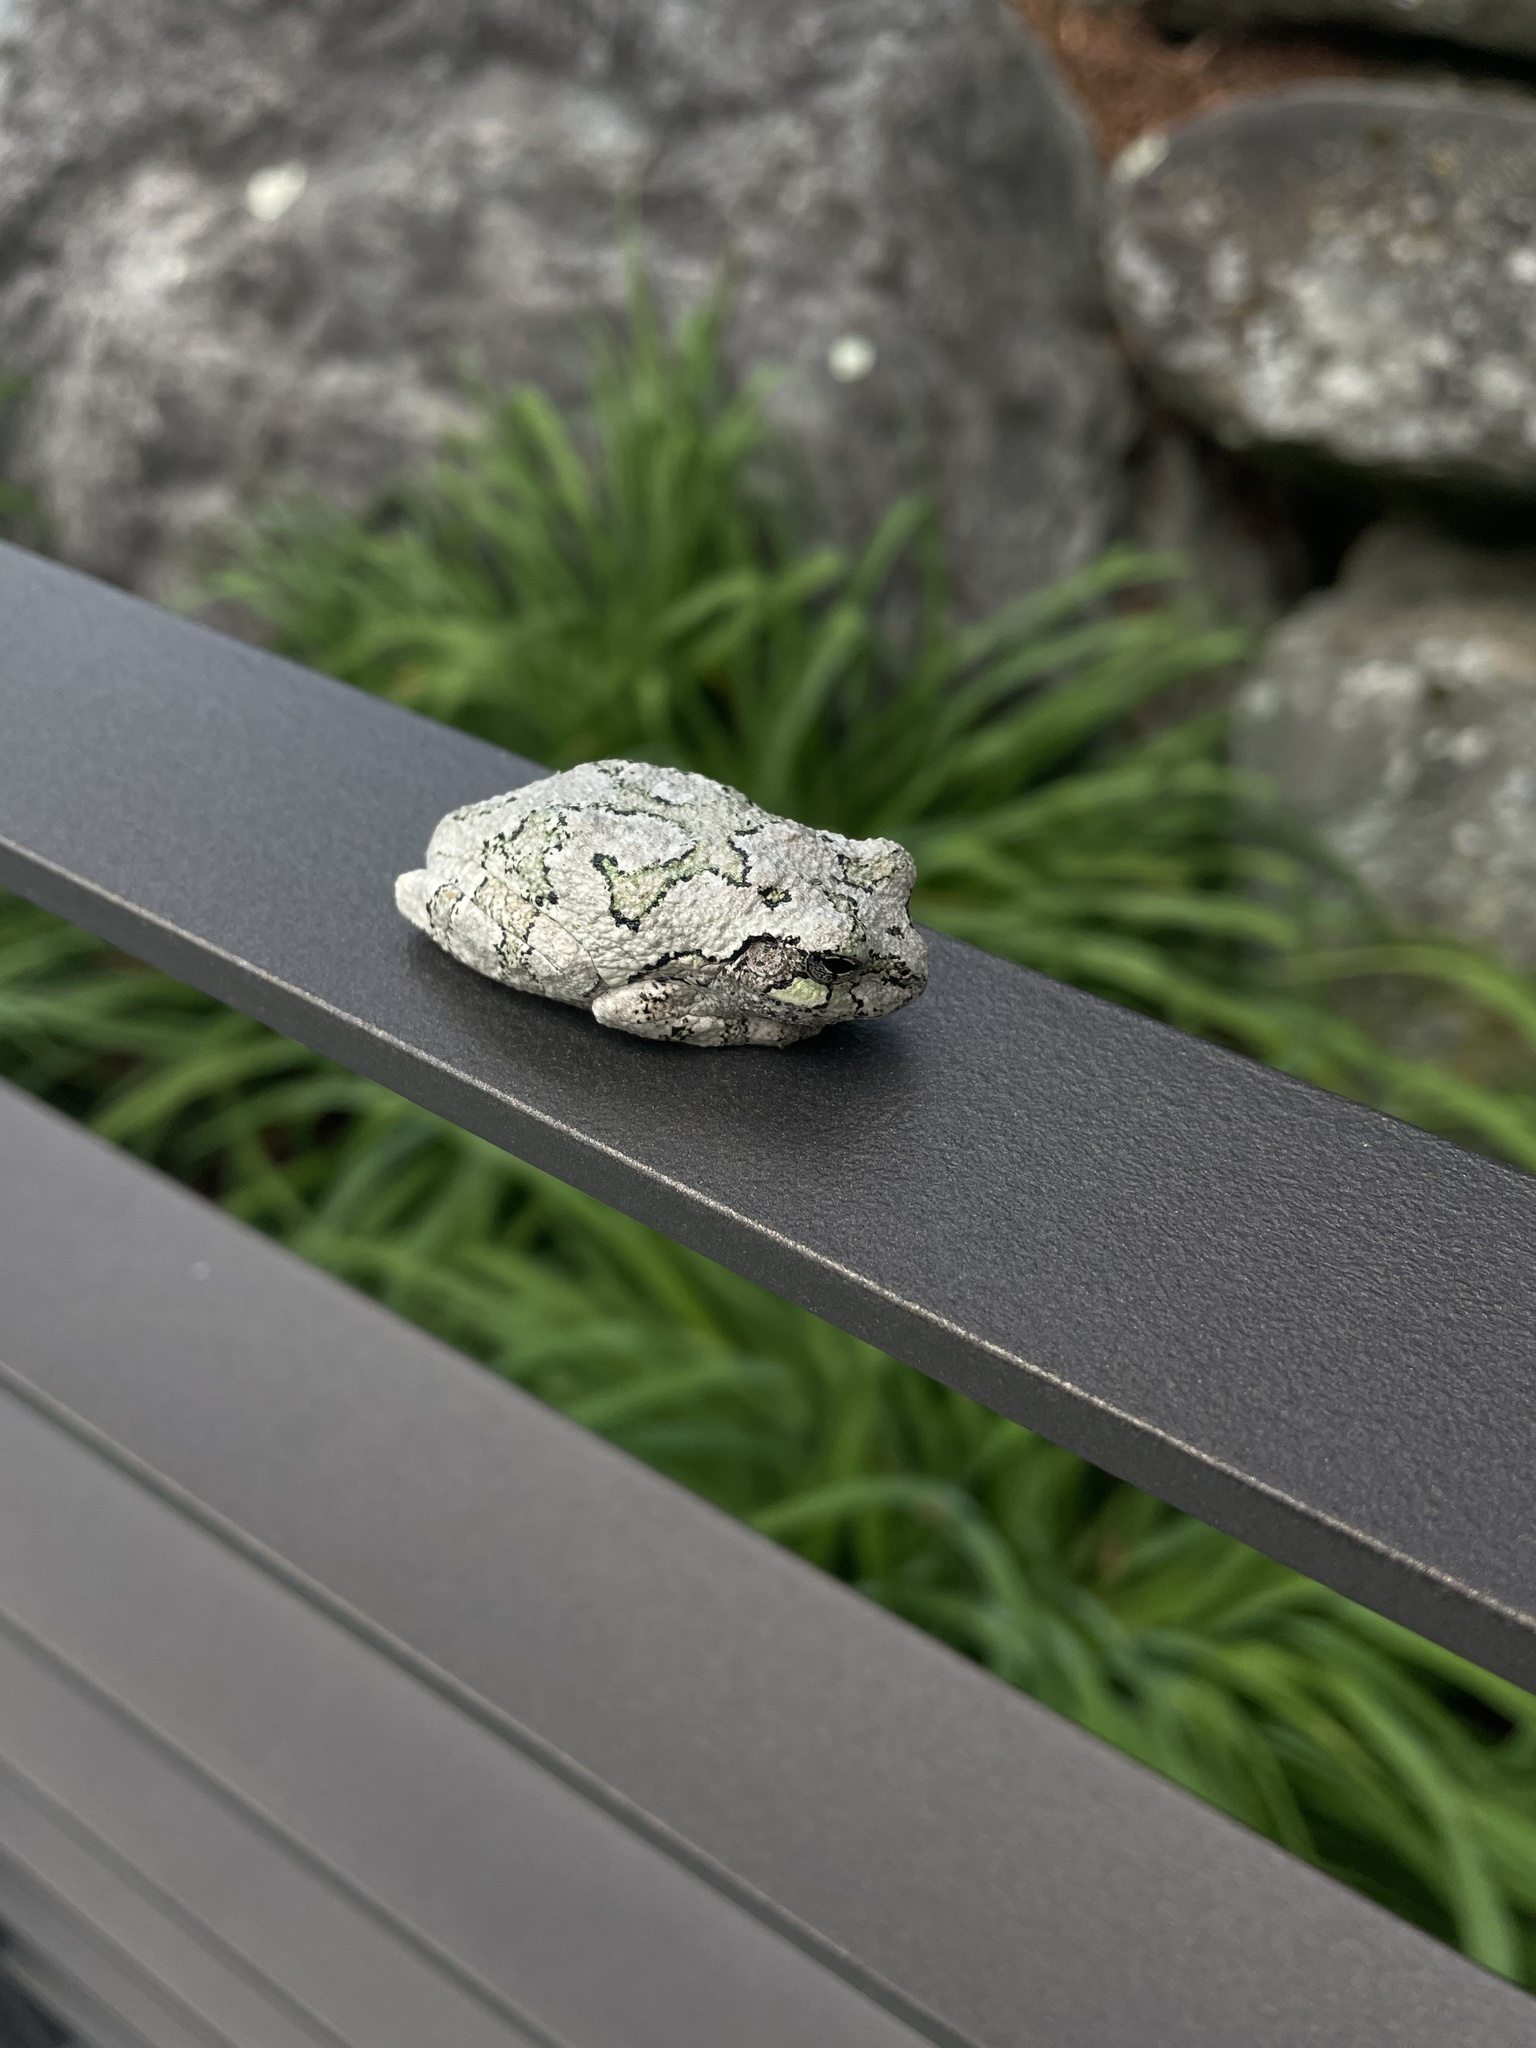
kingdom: Animalia
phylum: Chordata
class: Amphibia
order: Anura
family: Hylidae
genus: Dryophytes
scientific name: Dryophytes versicolor
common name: Gray treefrog
